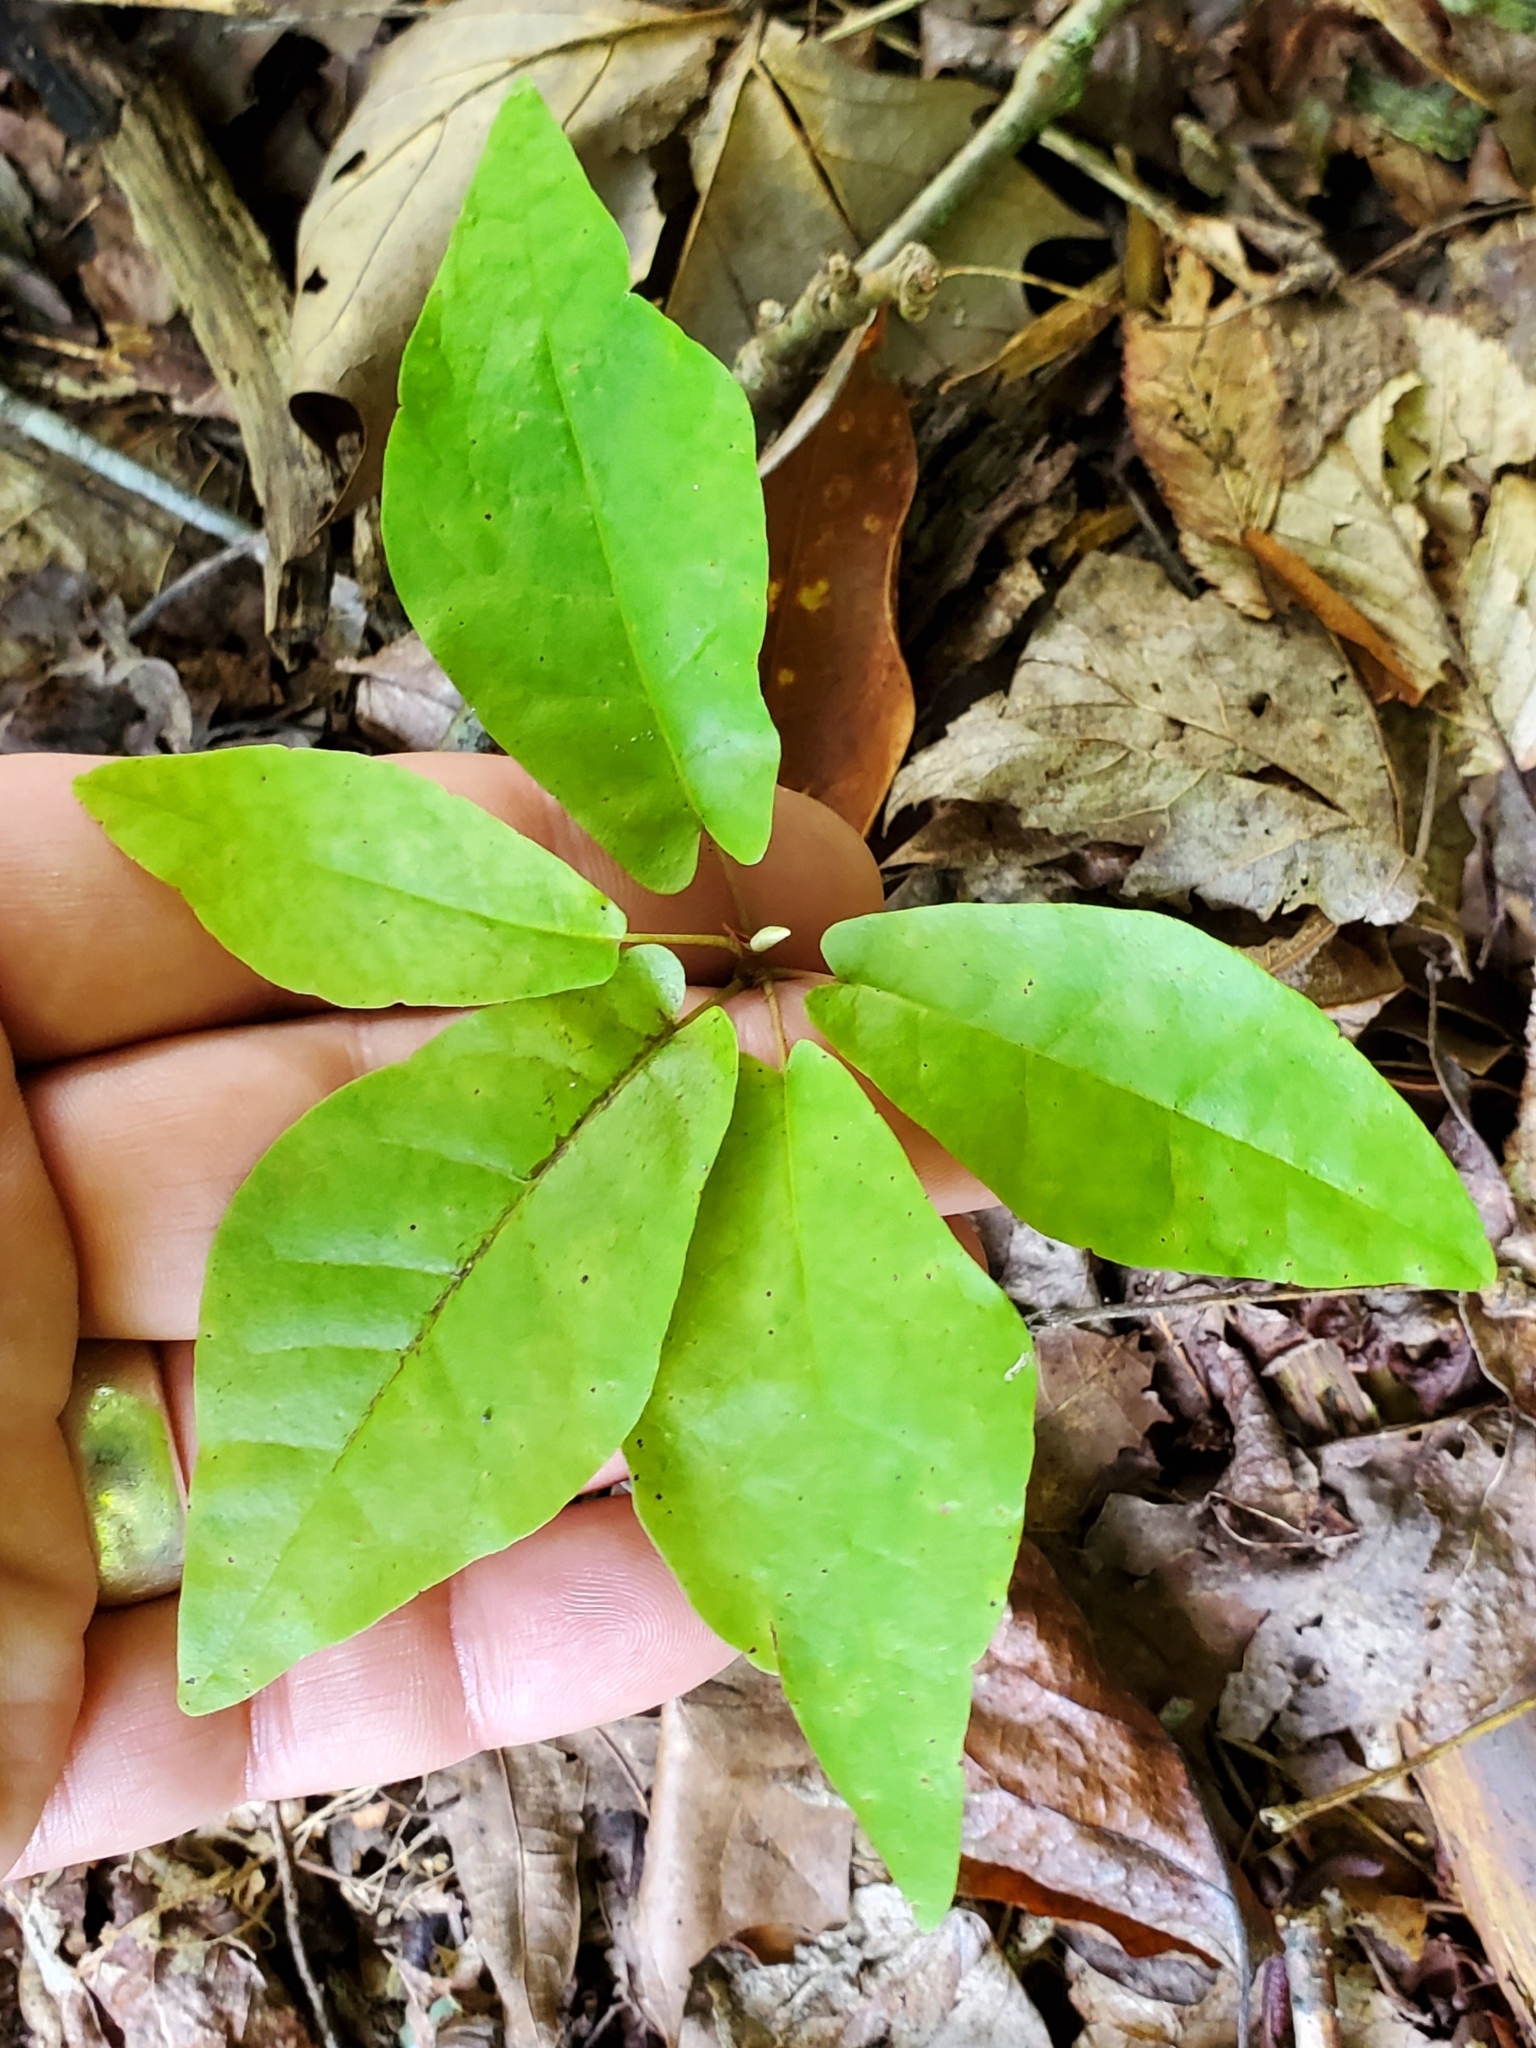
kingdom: Plantae
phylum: Tracheophyta
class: Magnoliopsida
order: Magnoliales
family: Magnoliaceae
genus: Magnolia
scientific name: Magnolia fraseri
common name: Fraser's magnolia
